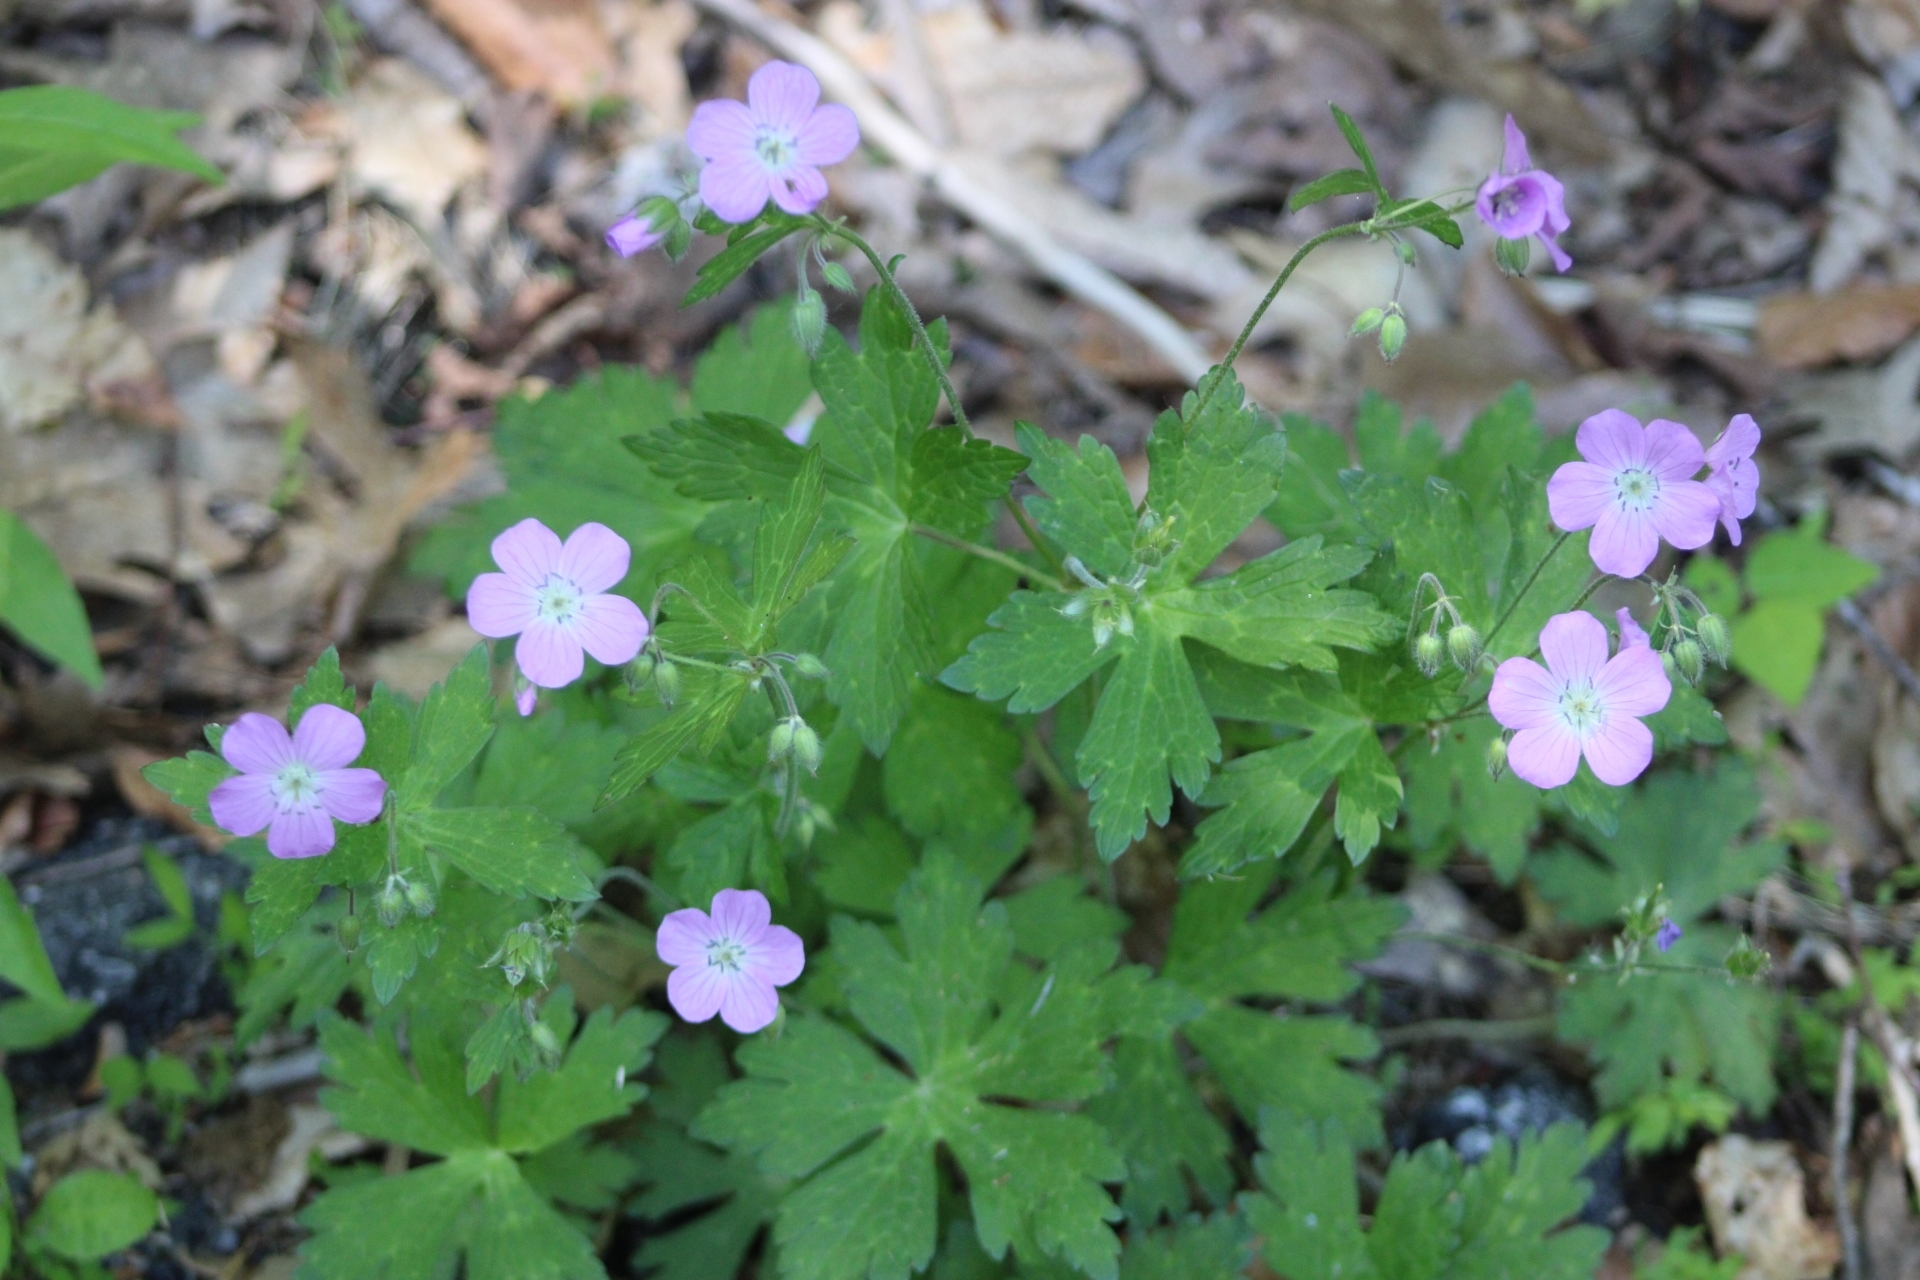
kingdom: Plantae
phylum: Tracheophyta
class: Magnoliopsida
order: Geraniales
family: Geraniaceae
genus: Geranium
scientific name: Geranium maculatum
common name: Spotted geranium
